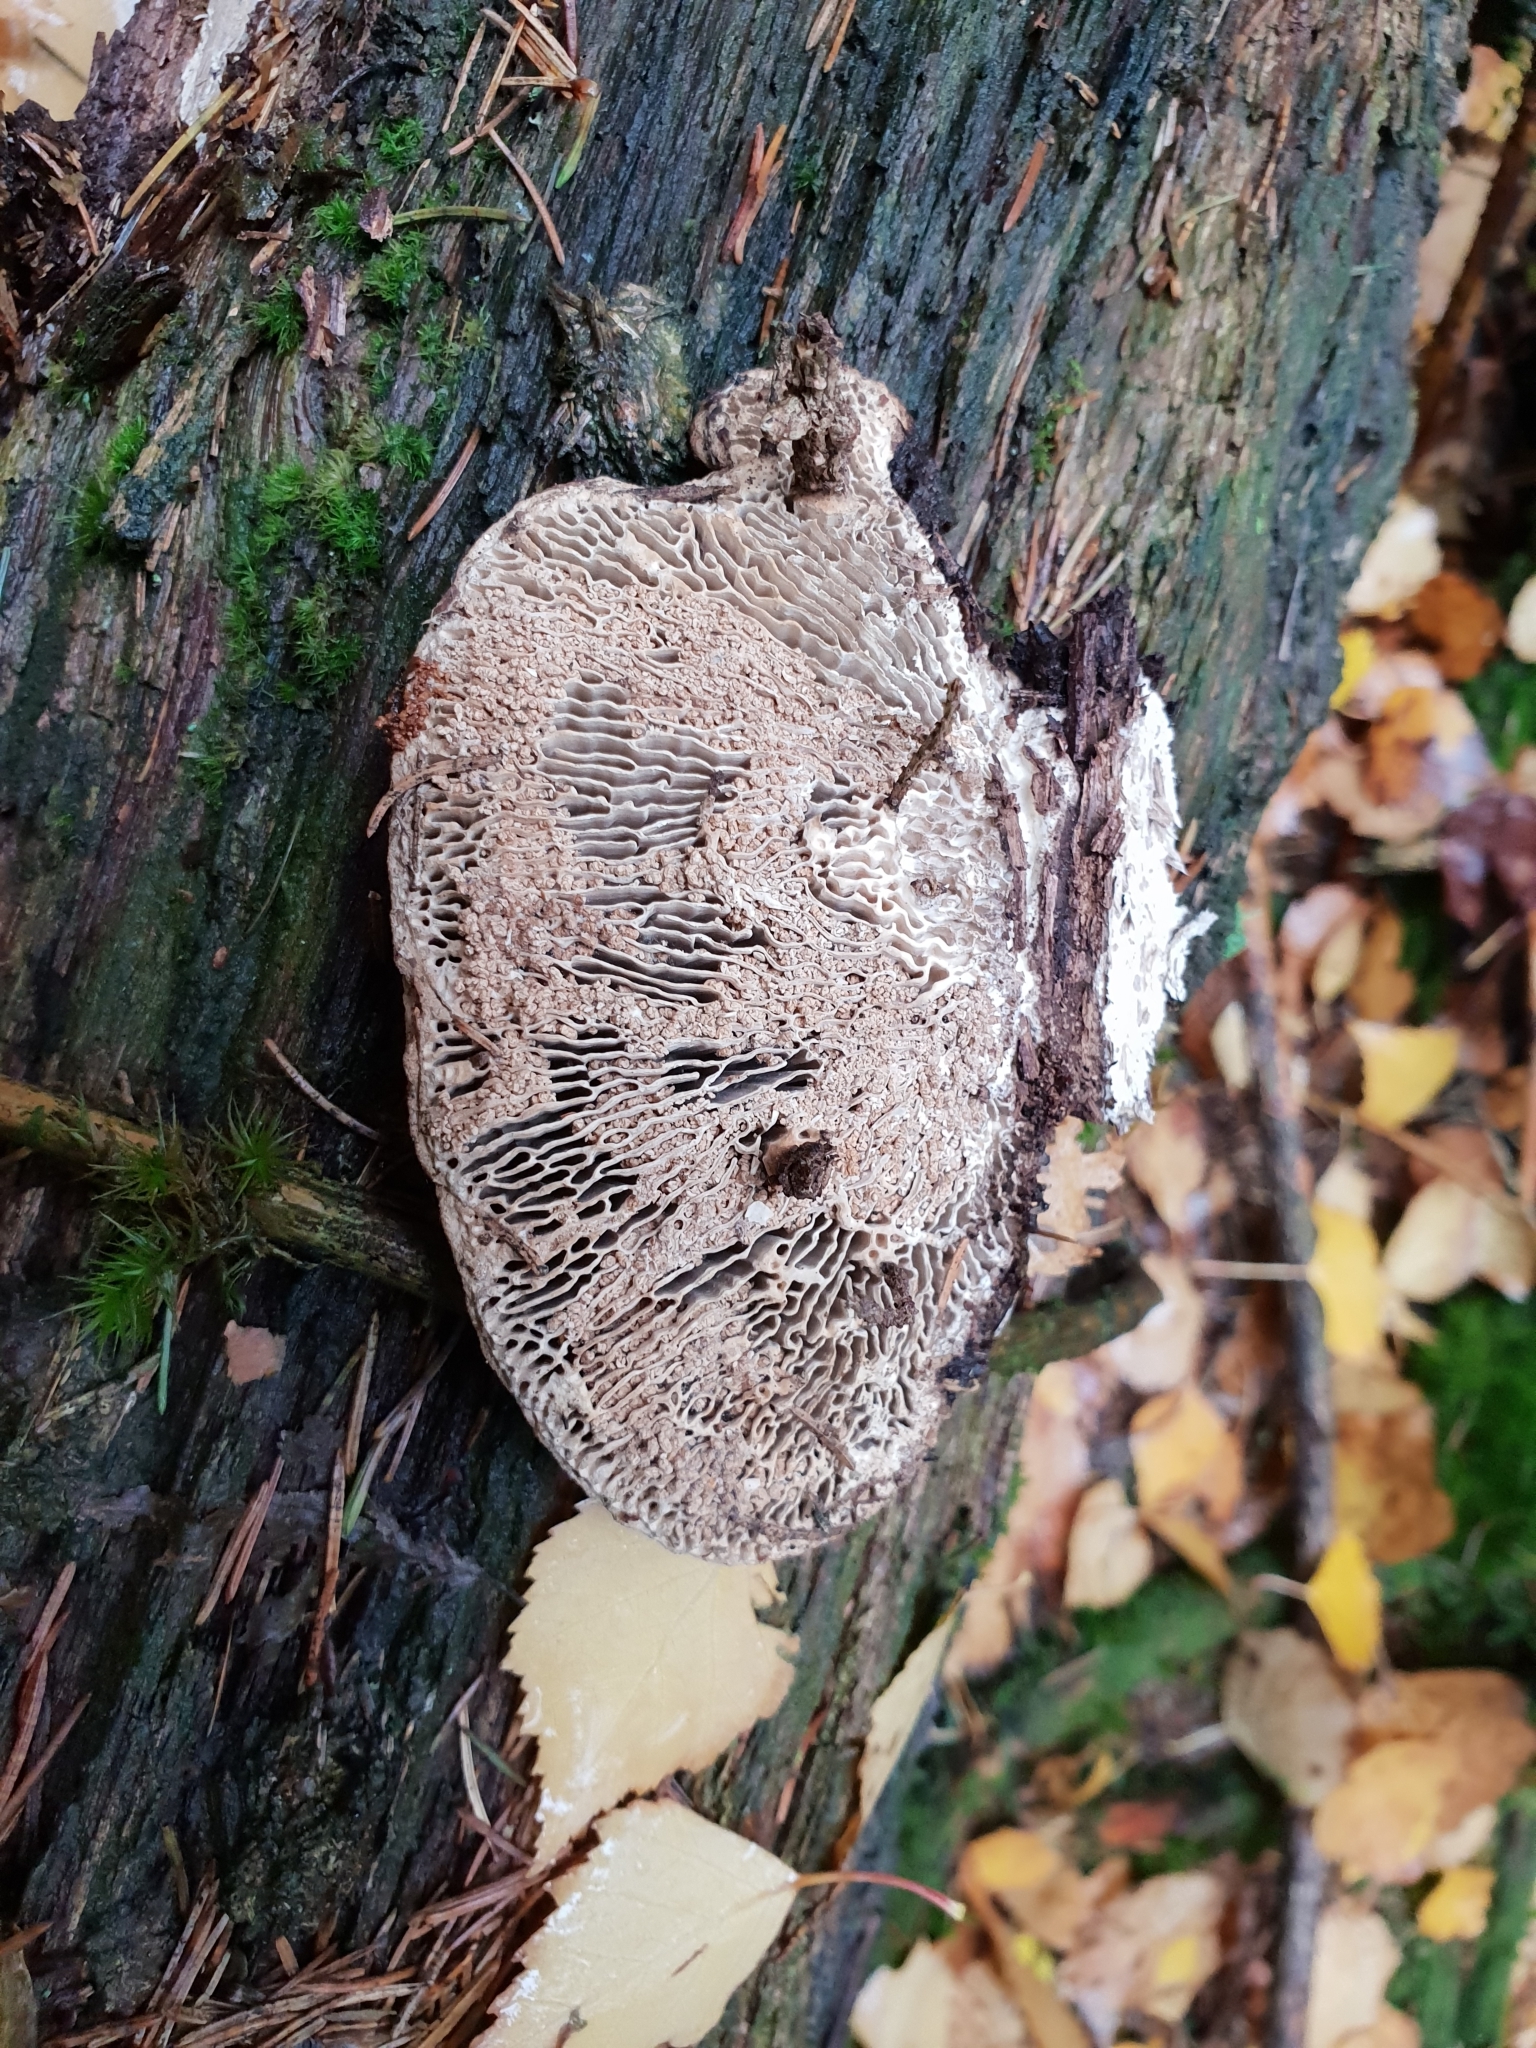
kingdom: Fungi
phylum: Basidiomycota
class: Agaricomycetes
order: Polyporales
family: Fomitopsidaceae
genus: Fomitopsis
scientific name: Fomitopsis
